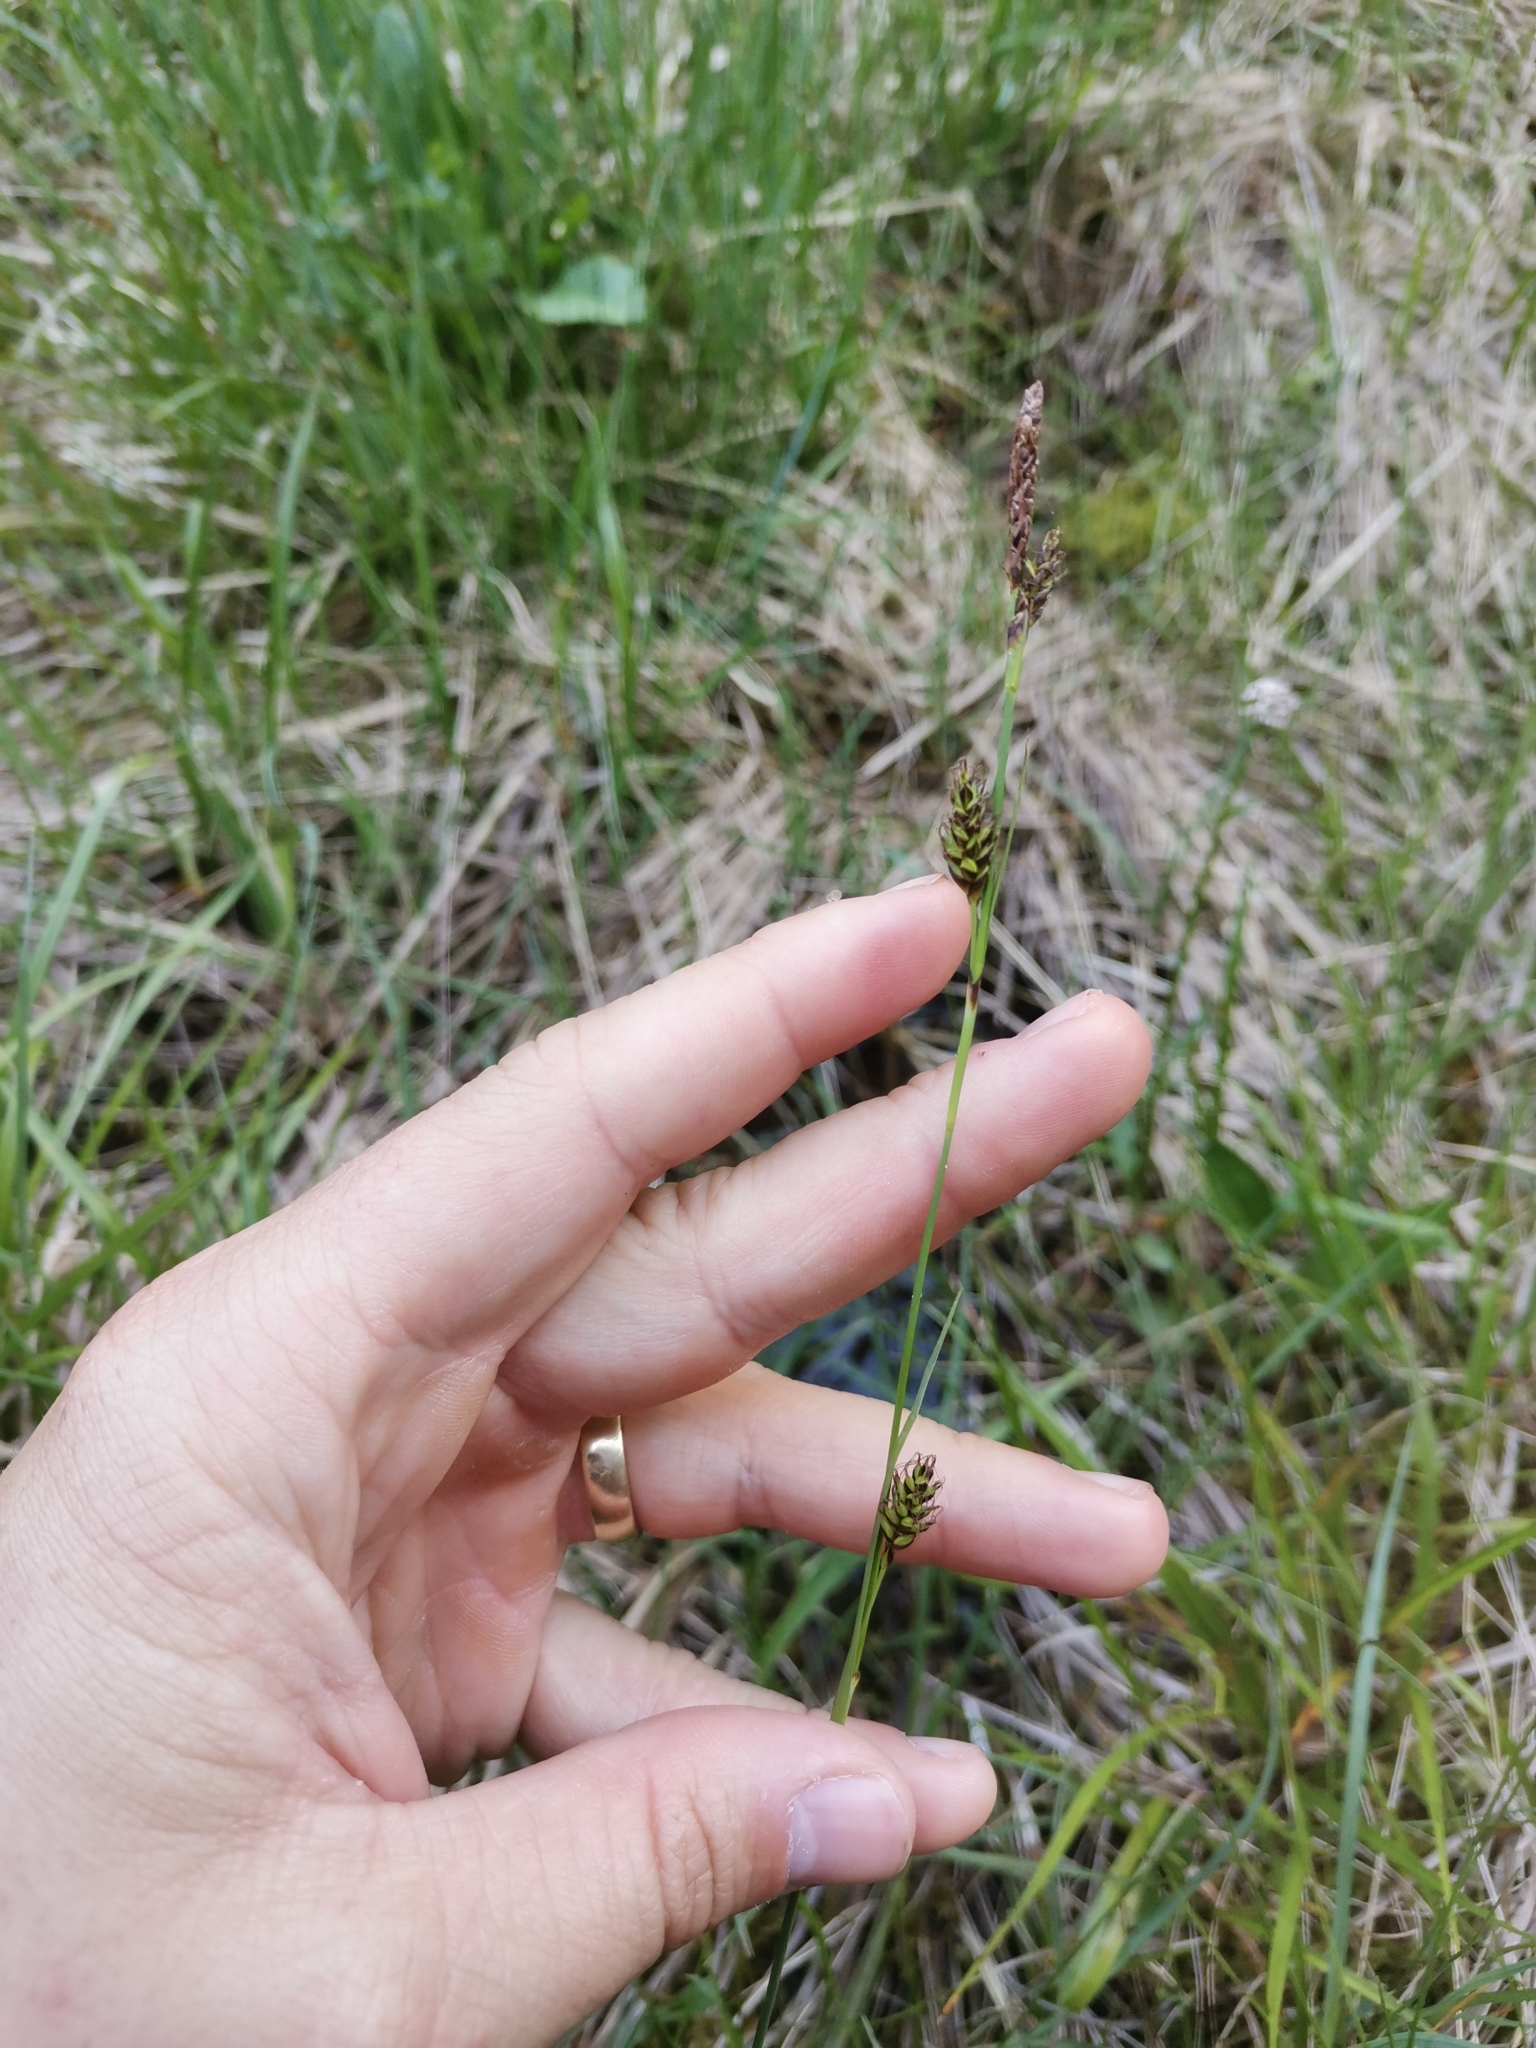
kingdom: Plantae
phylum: Tracheophyta
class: Liliopsida
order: Poales
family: Cyperaceae
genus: Carex
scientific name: Carex distans
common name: Distant sedge
